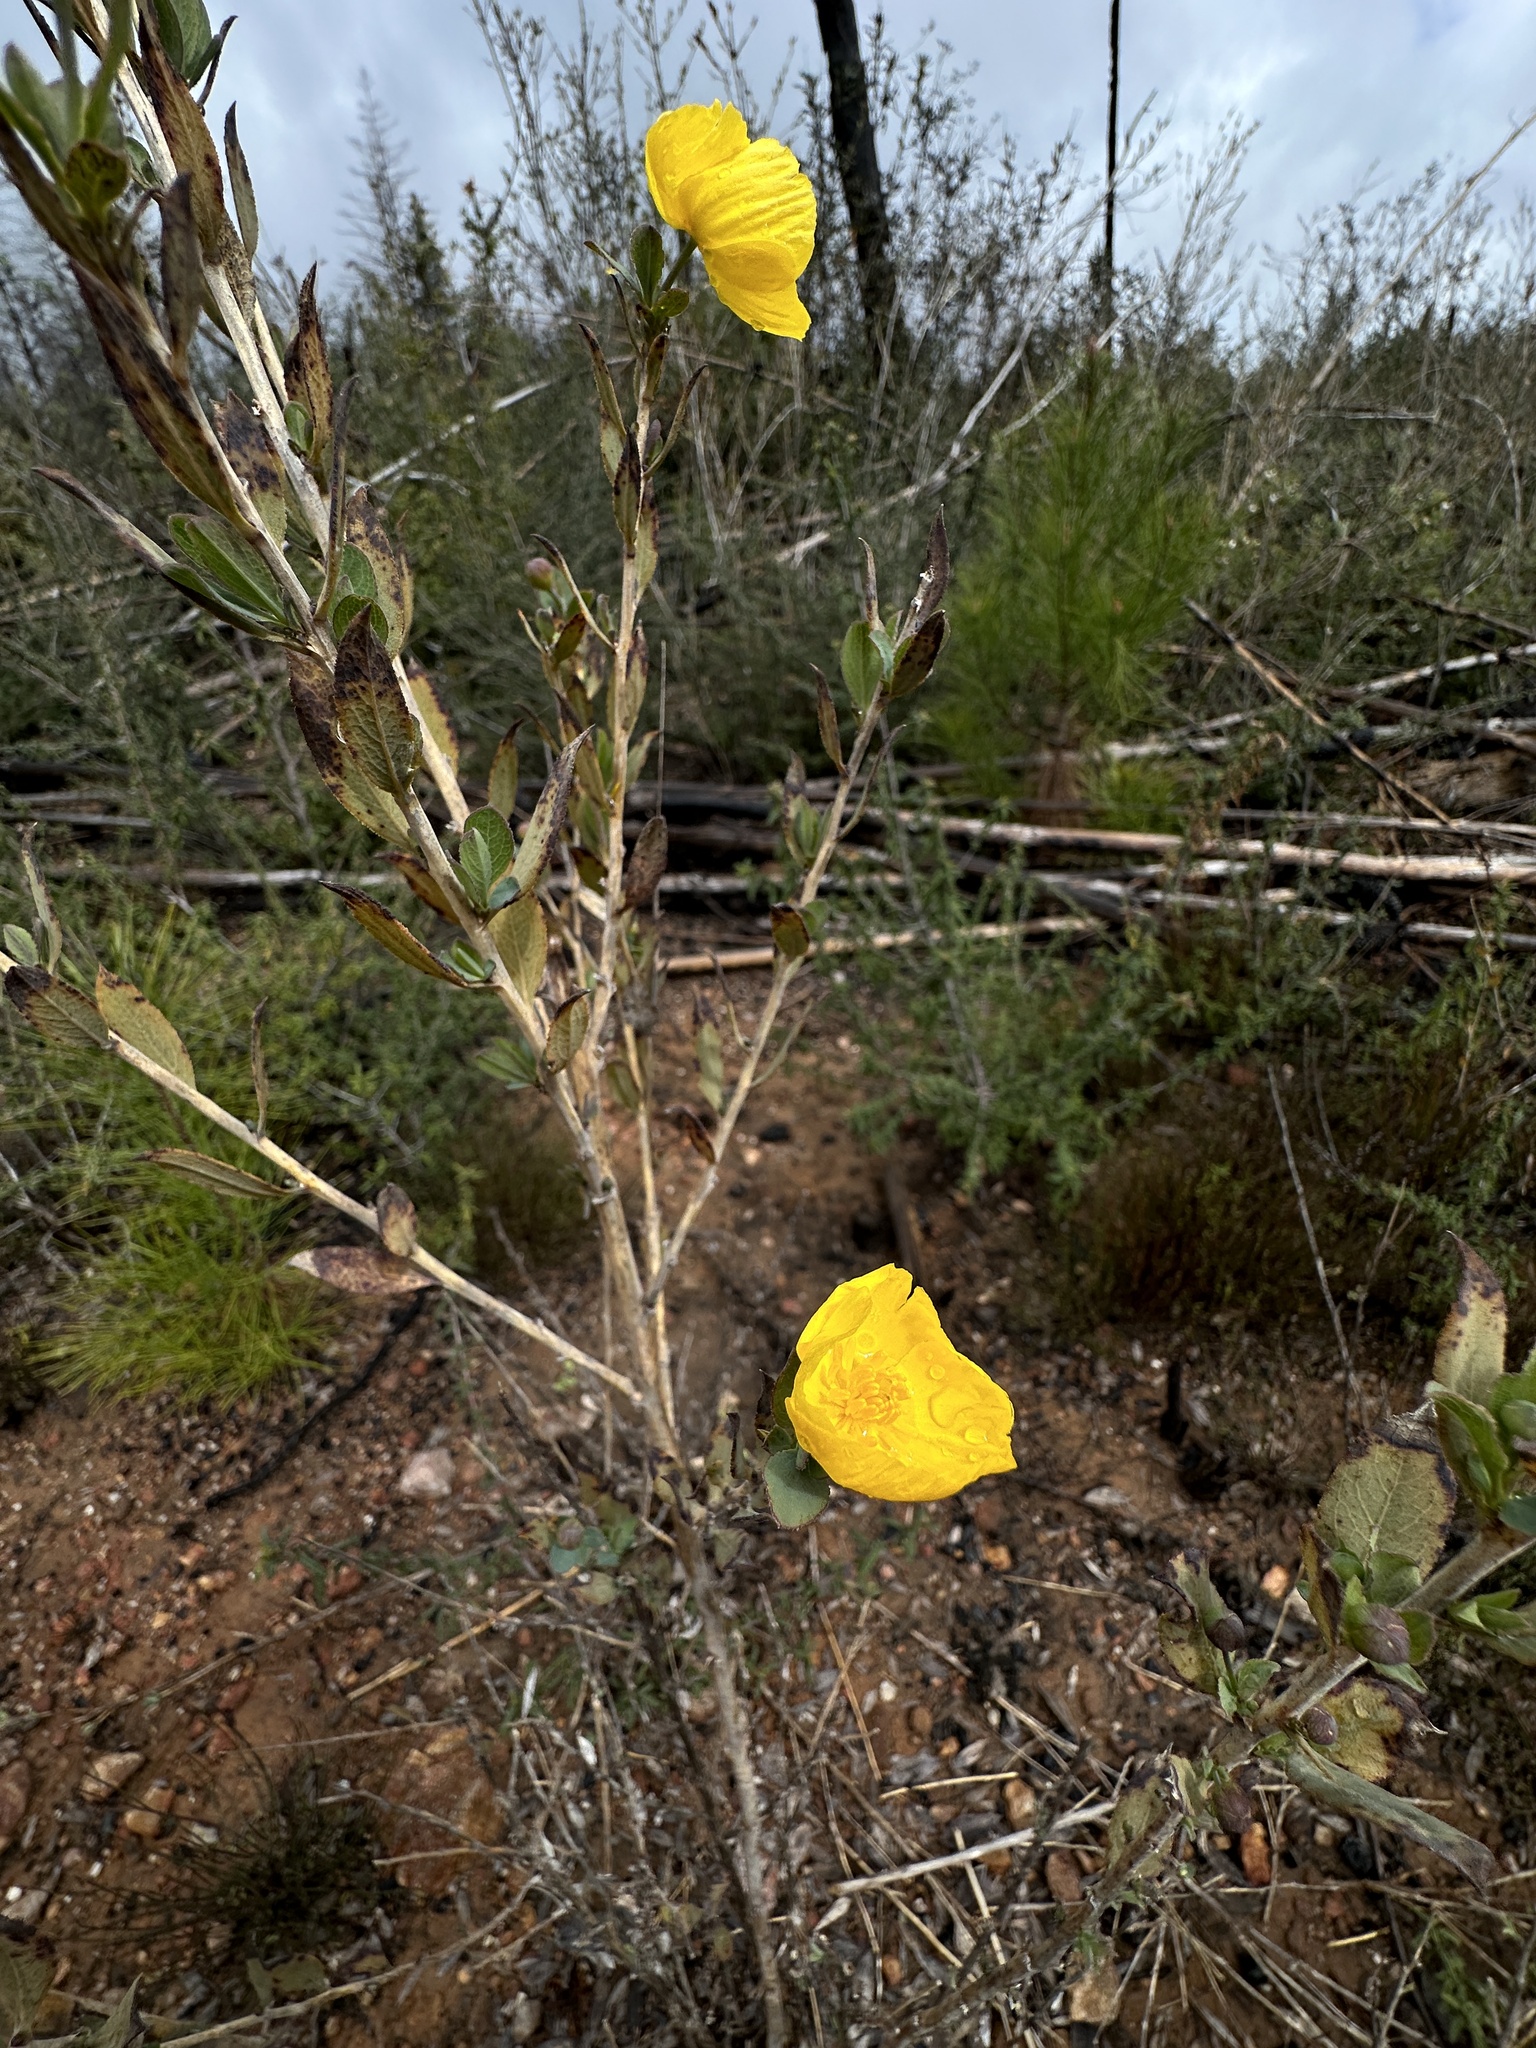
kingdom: Plantae
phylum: Tracheophyta
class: Magnoliopsida
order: Ranunculales
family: Papaveraceae
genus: Dendromecon
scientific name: Dendromecon rigida
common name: Tree poppy
